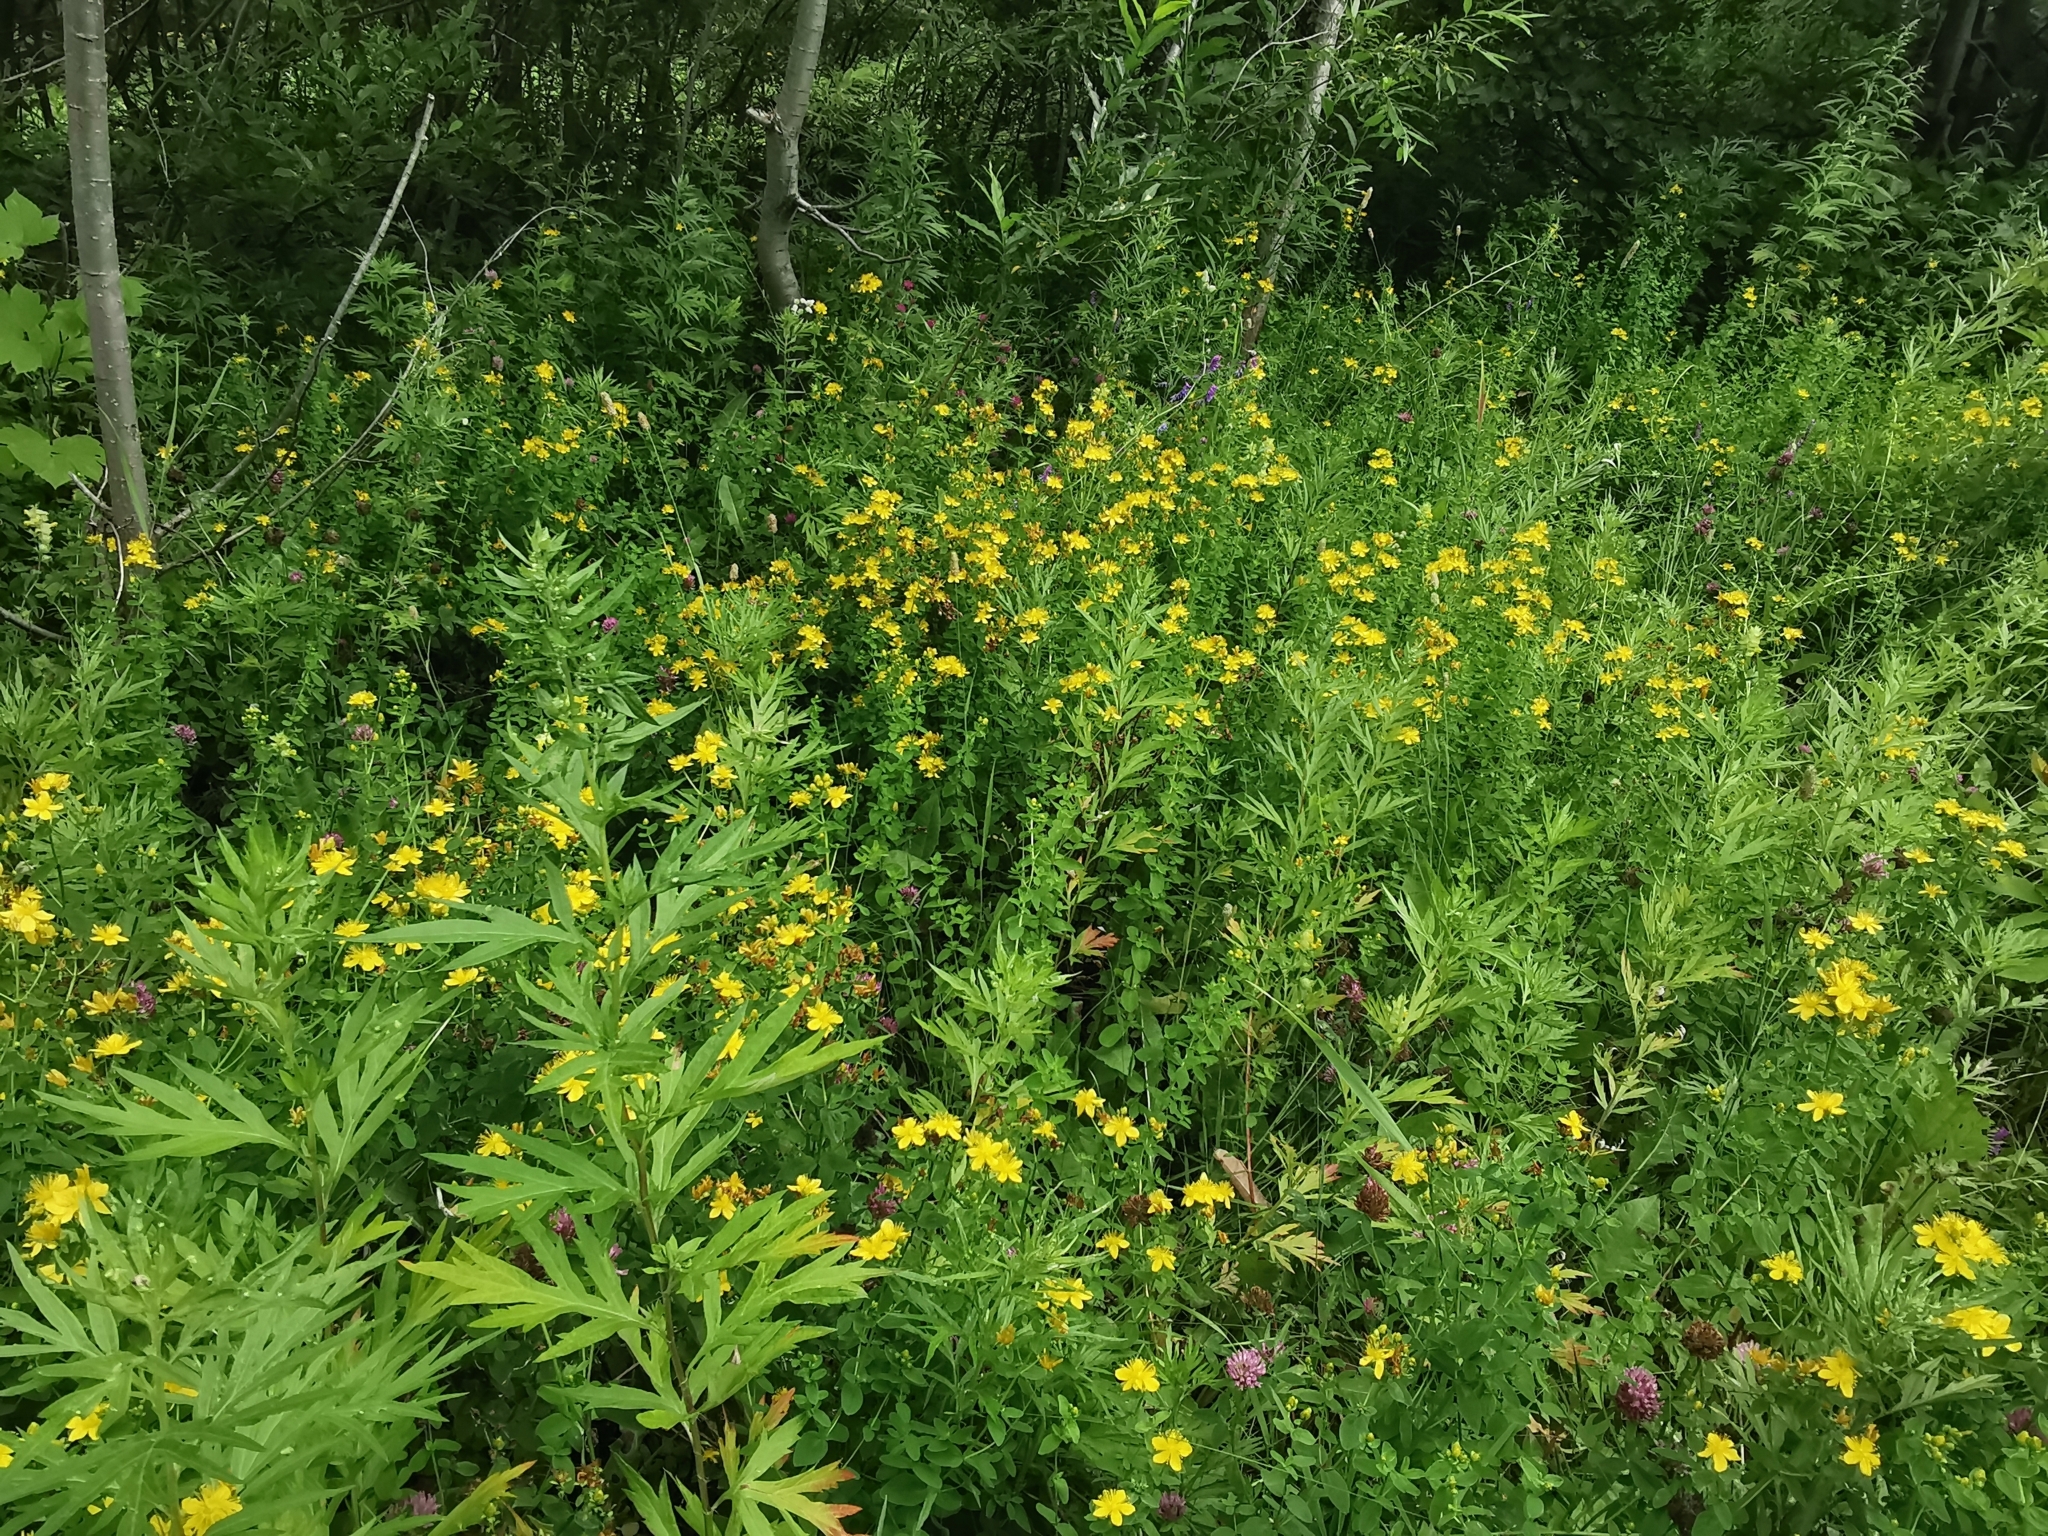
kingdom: Plantae
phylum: Tracheophyta
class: Magnoliopsida
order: Malpighiales
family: Hypericaceae
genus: Hypericum
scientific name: Hypericum kamtschaticum
